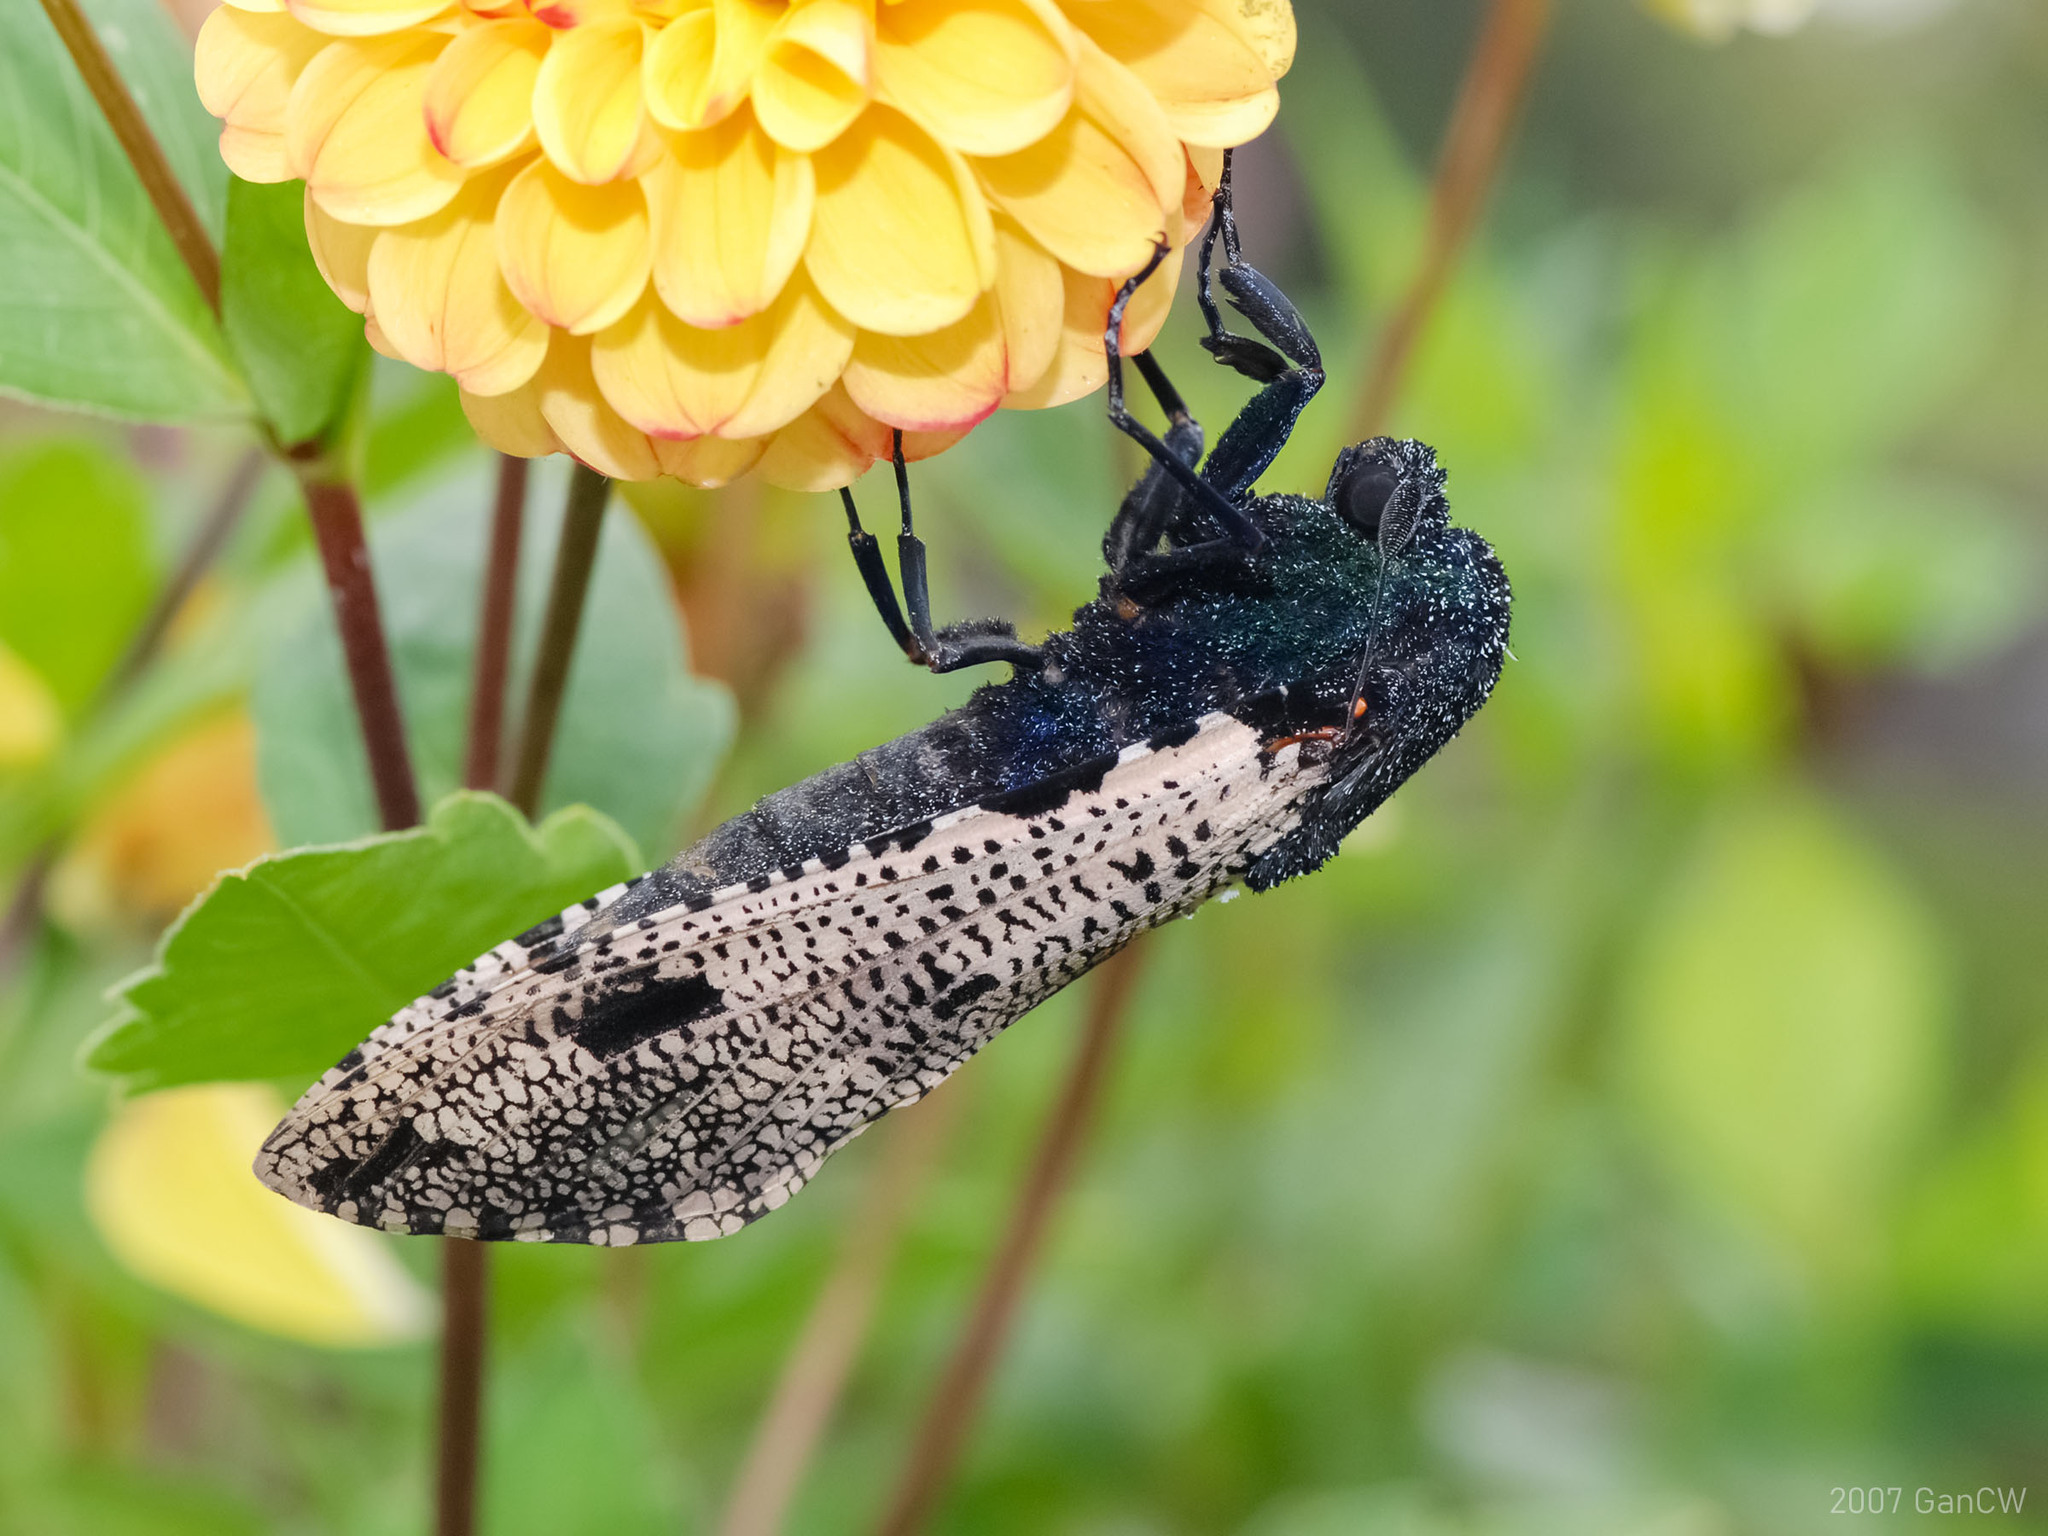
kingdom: Animalia
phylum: Arthropoda
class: Insecta
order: Lepidoptera
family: Cossidae
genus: Xyleutes
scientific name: Xyleutes strix
